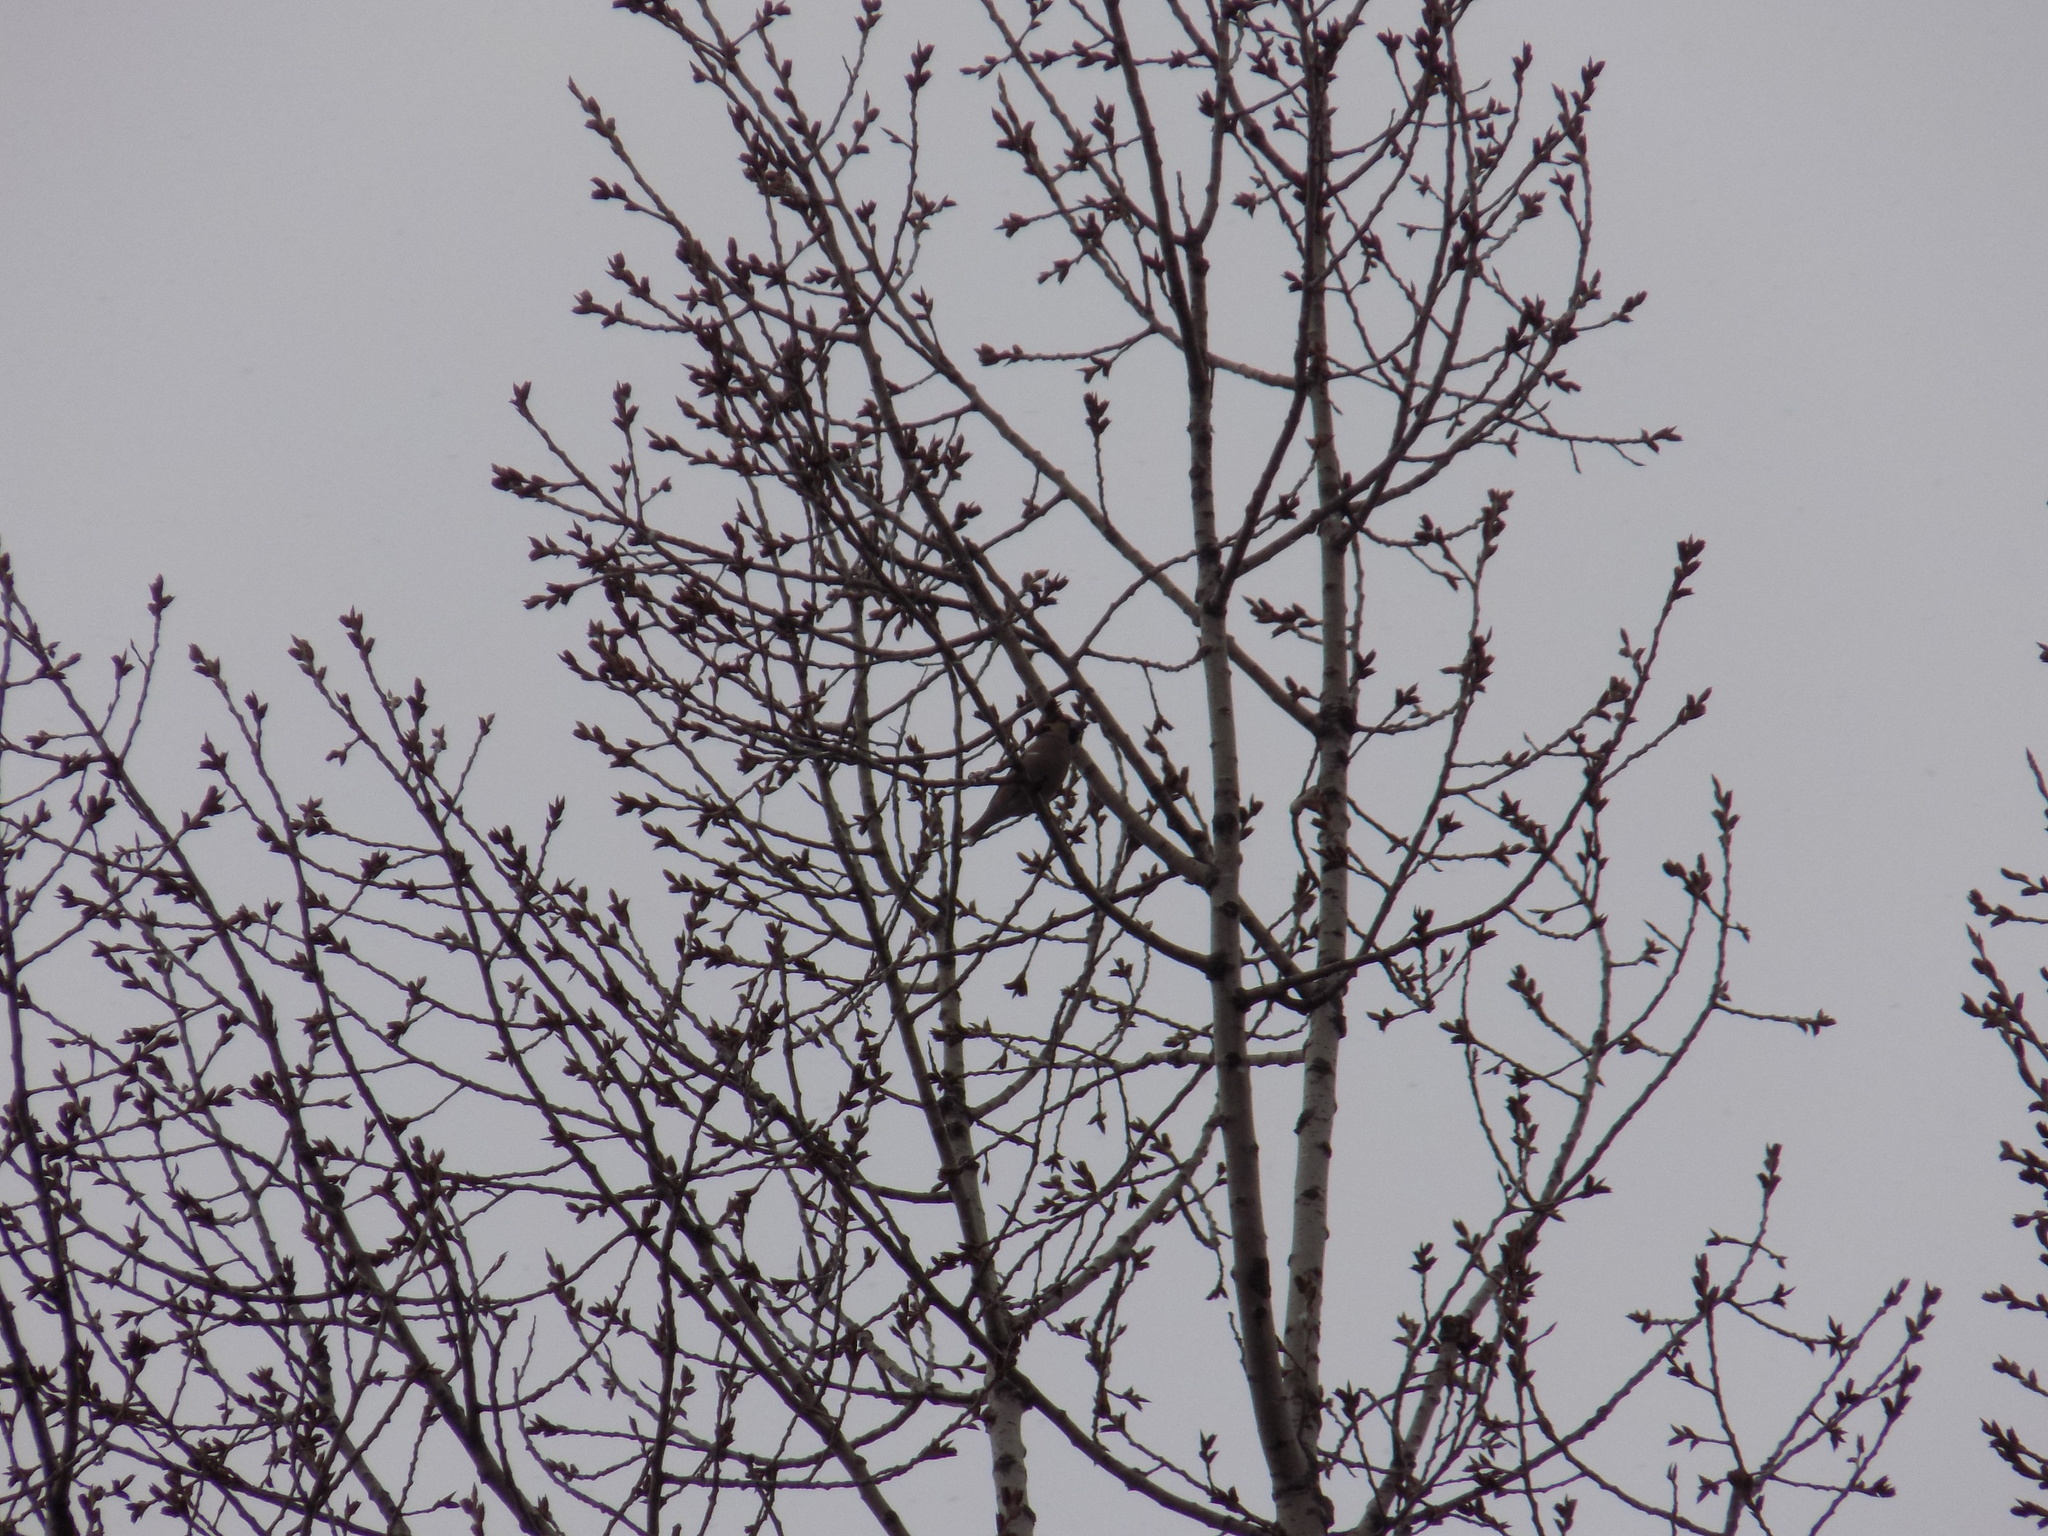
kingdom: Animalia
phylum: Chordata
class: Aves
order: Passeriformes
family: Fringillidae
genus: Coccothraustes
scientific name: Coccothraustes coccothraustes
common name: Hawfinch
